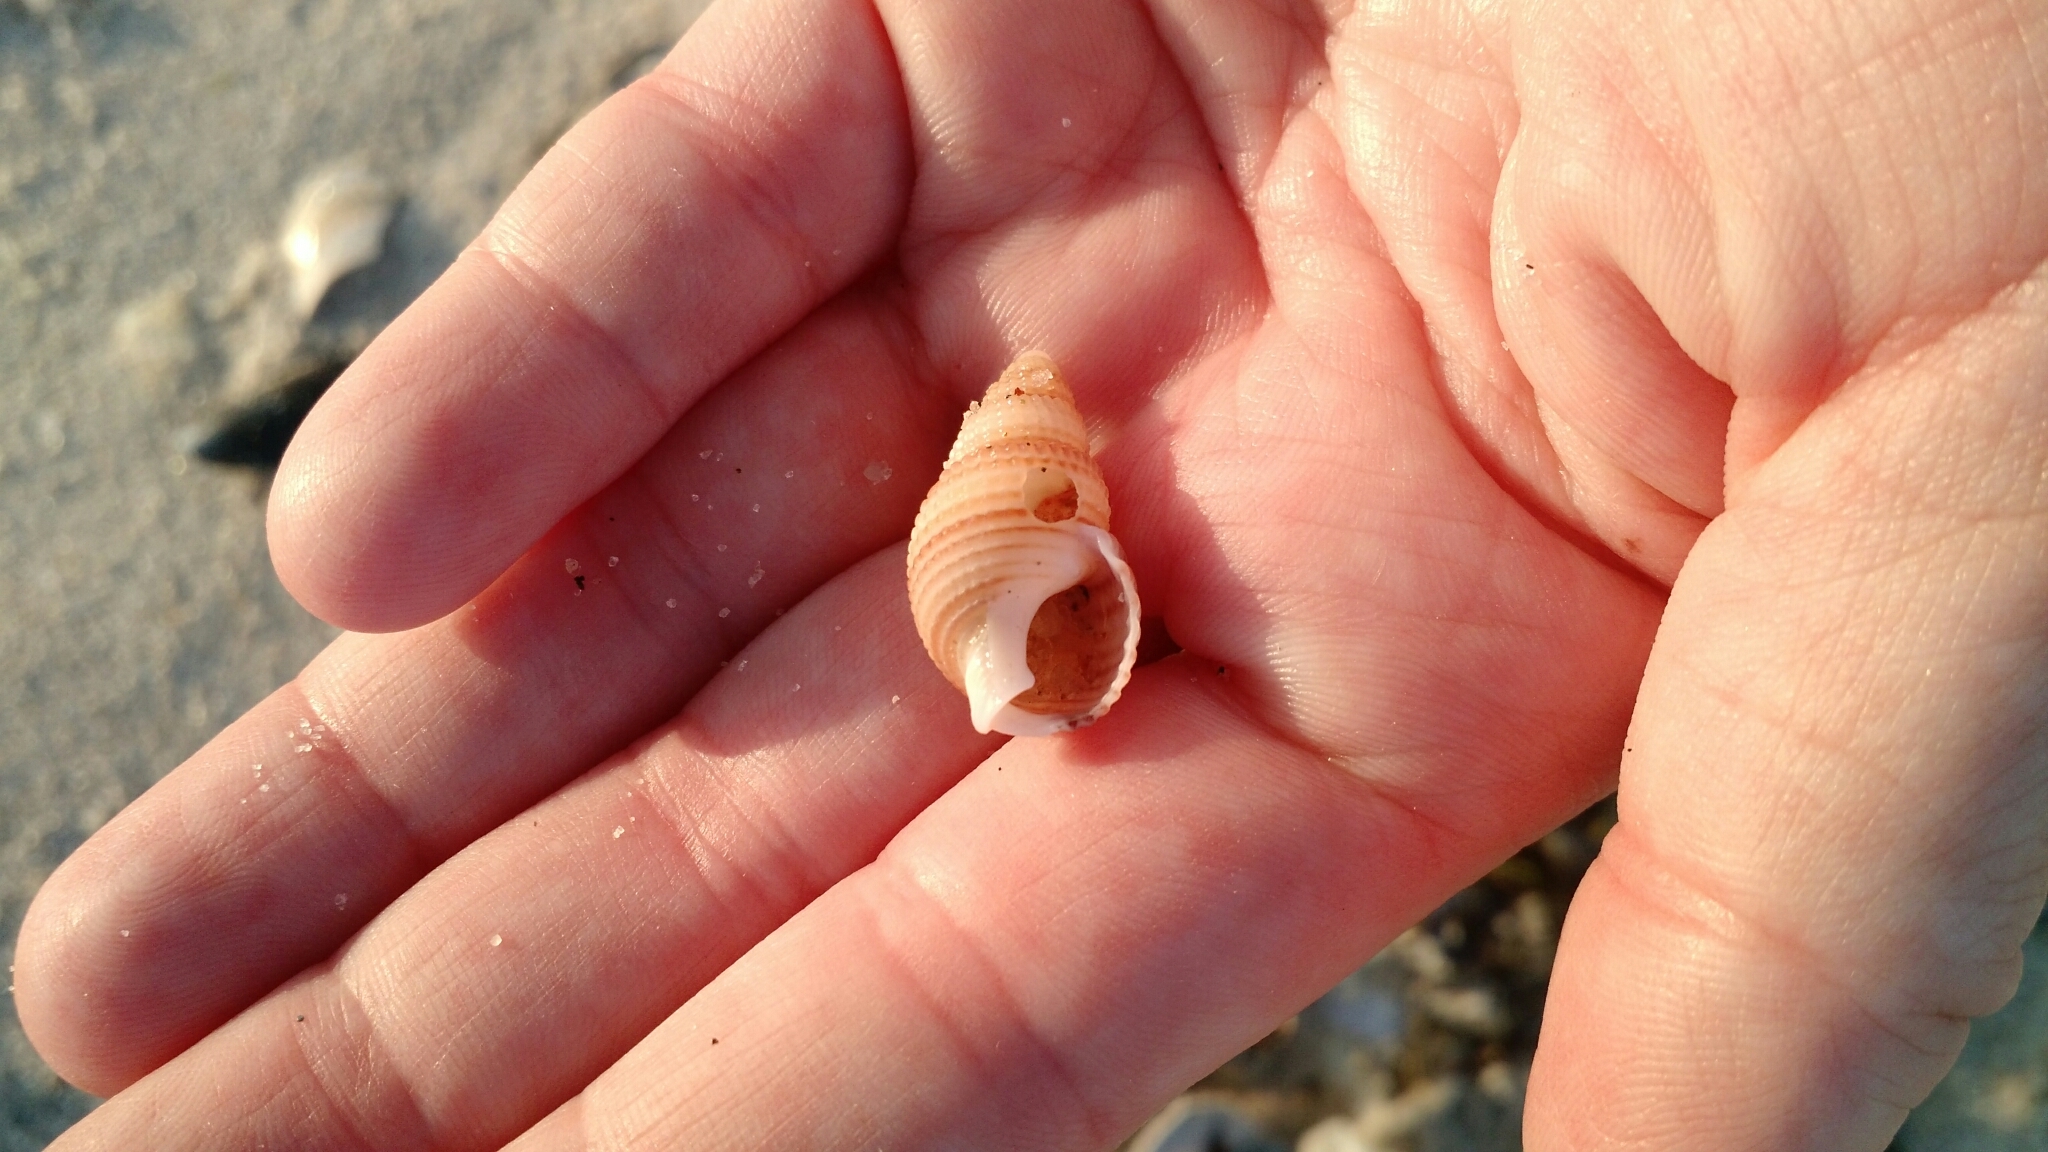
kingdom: Animalia
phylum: Mollusca
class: Gastropoda
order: Neogastropoda
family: Nassariidae
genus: Ilyanassa
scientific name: Ilyanassa trivittata
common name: Three-line mudsnail
